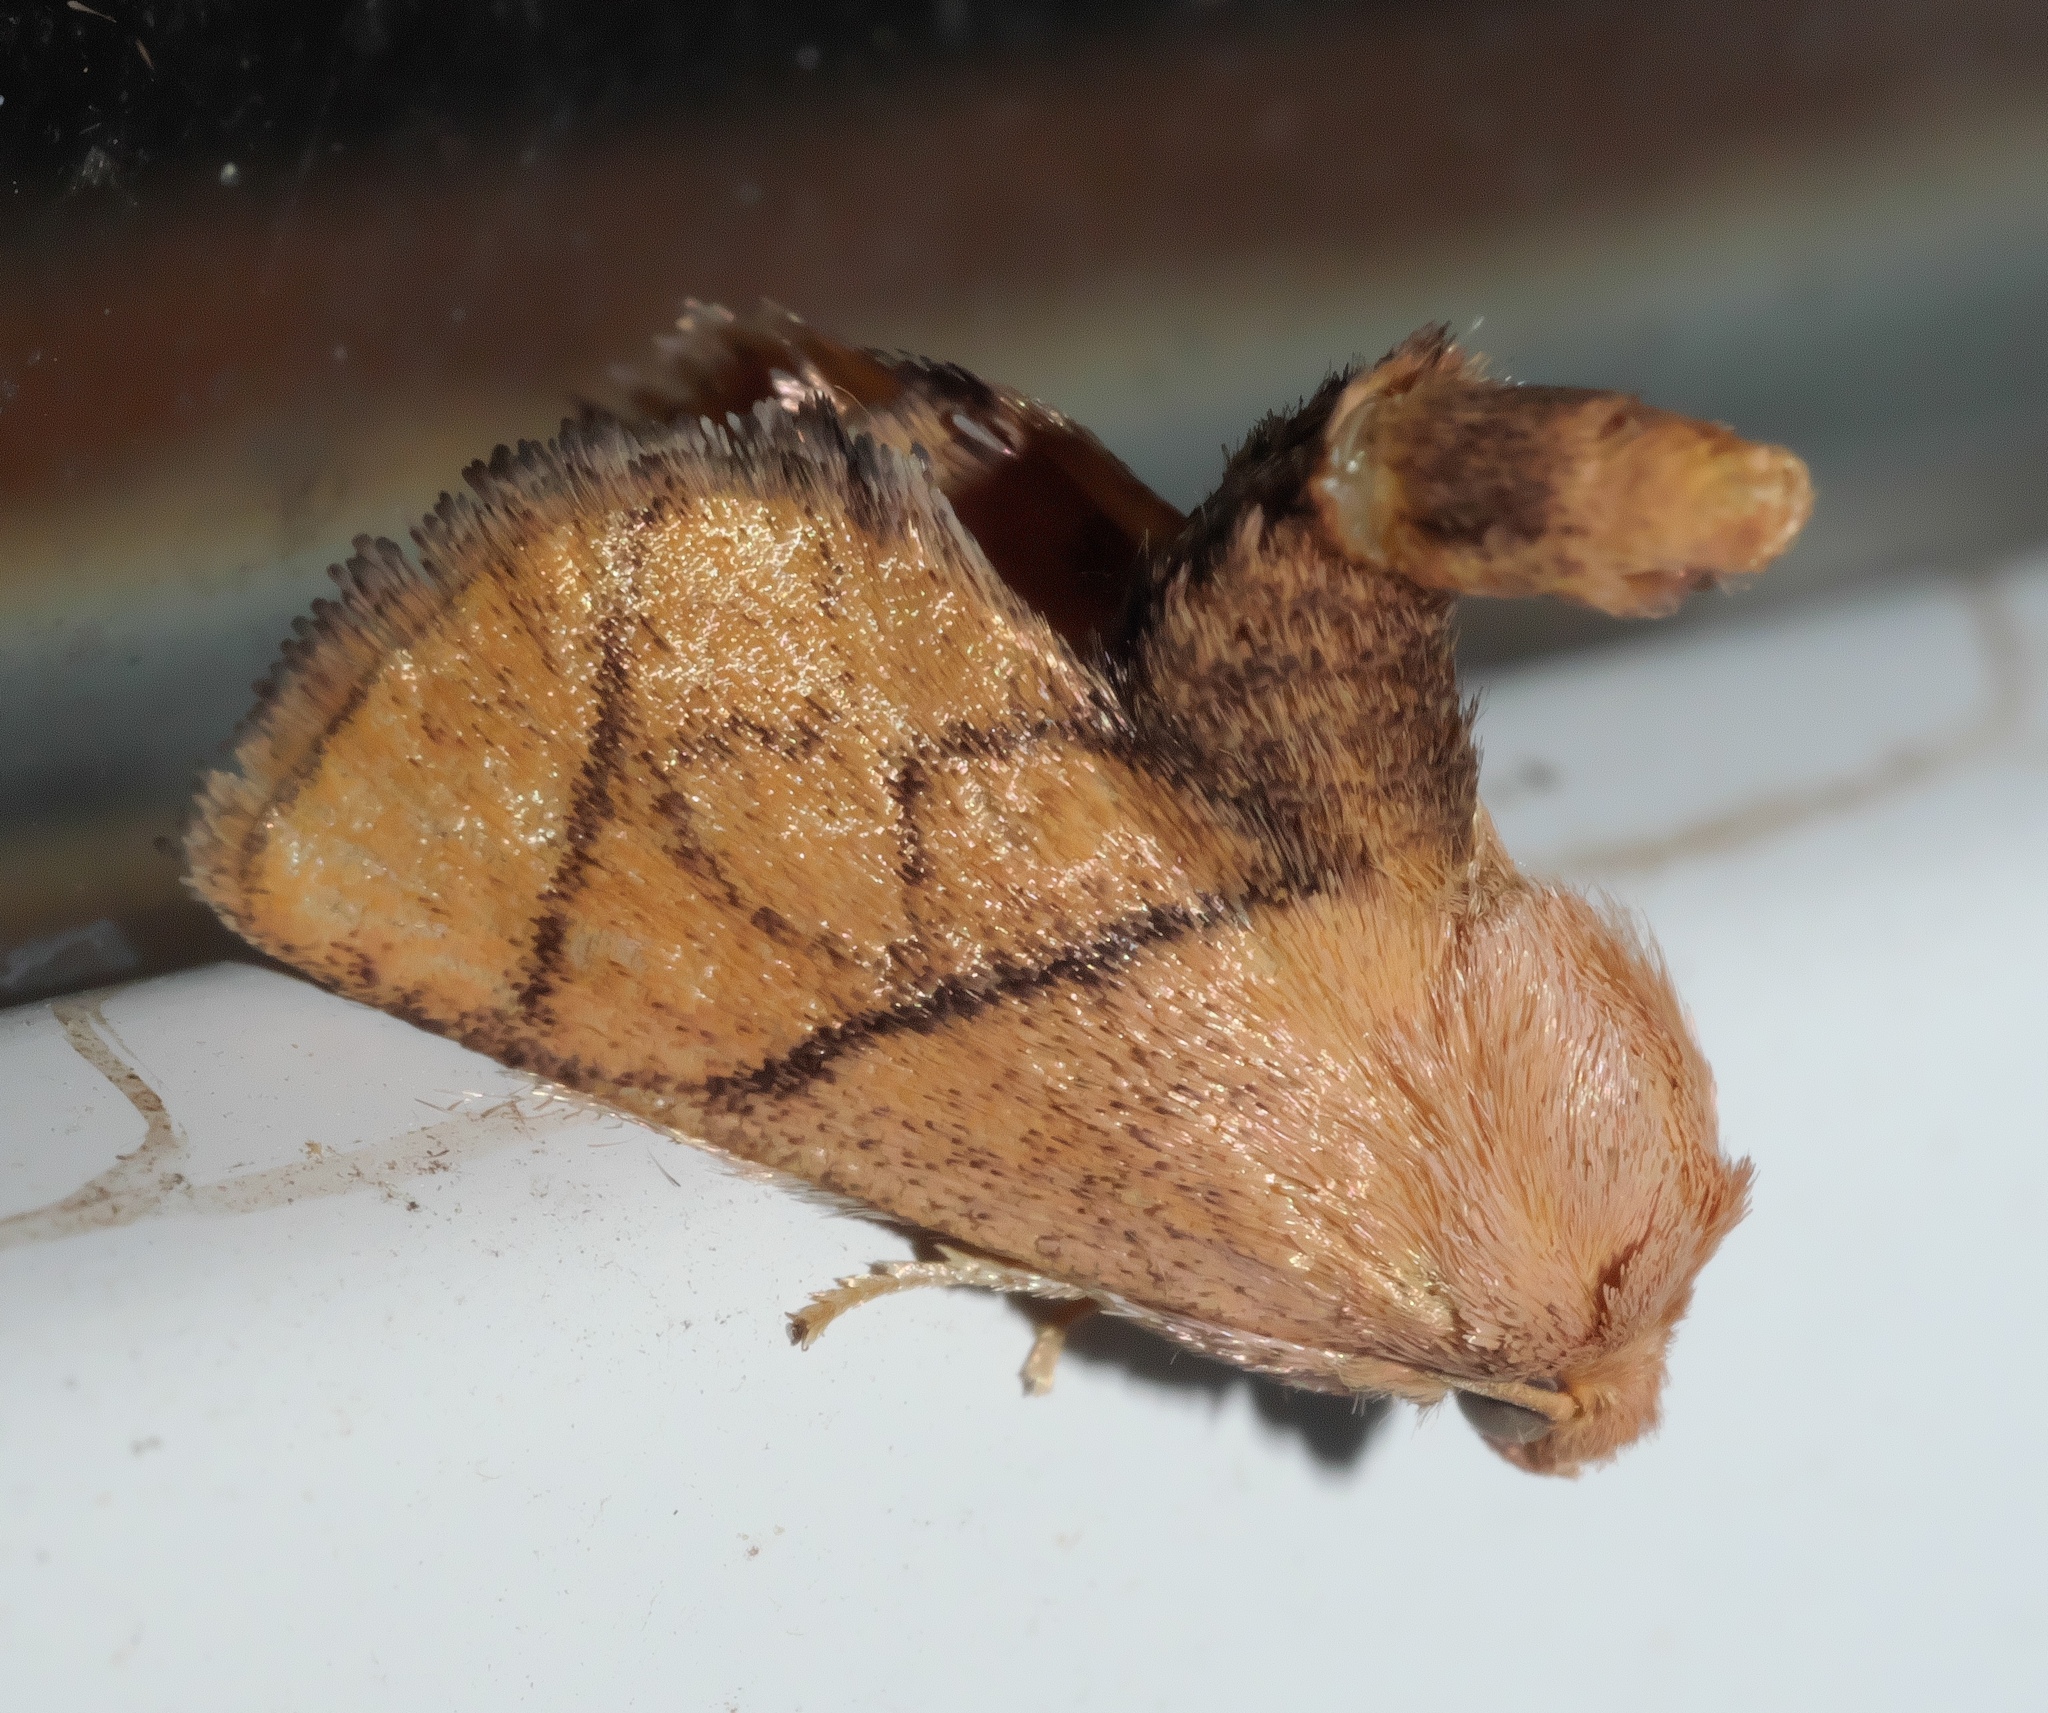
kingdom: Animalia
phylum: Arthropoda
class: Insecta
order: Lepidoptera
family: Limacodidae
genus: Apoda
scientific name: Apoda y-inversa
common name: Yellow-collared slug moth
